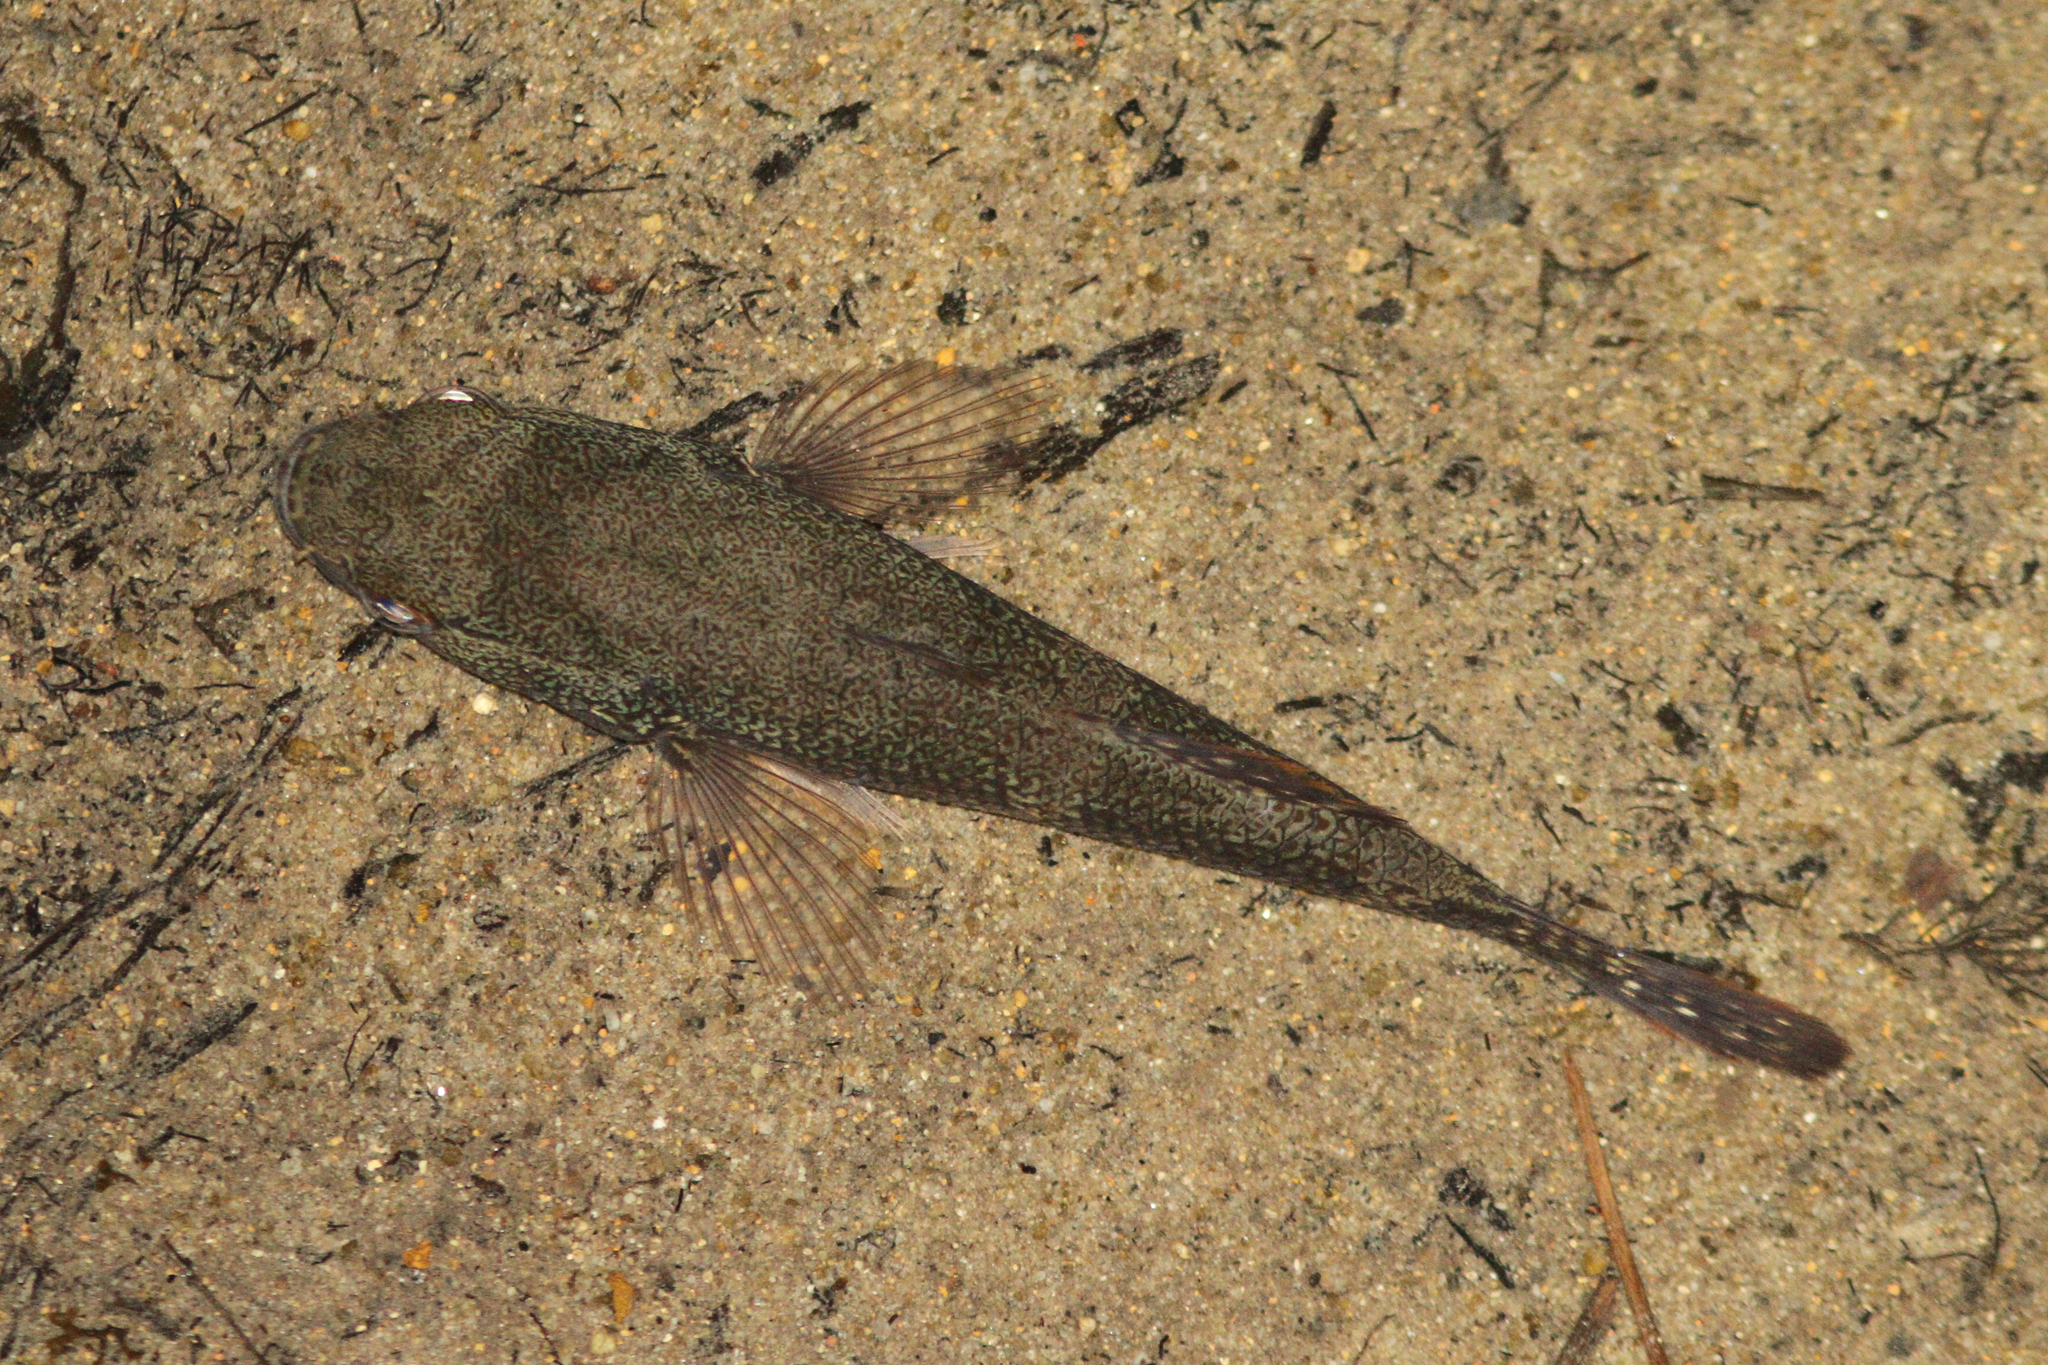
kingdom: Animalia
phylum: Chordata
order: Perciformes
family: Eleotridae
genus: Ophiocara
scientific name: Ophiocara porocephala
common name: Spangled gudgeon
